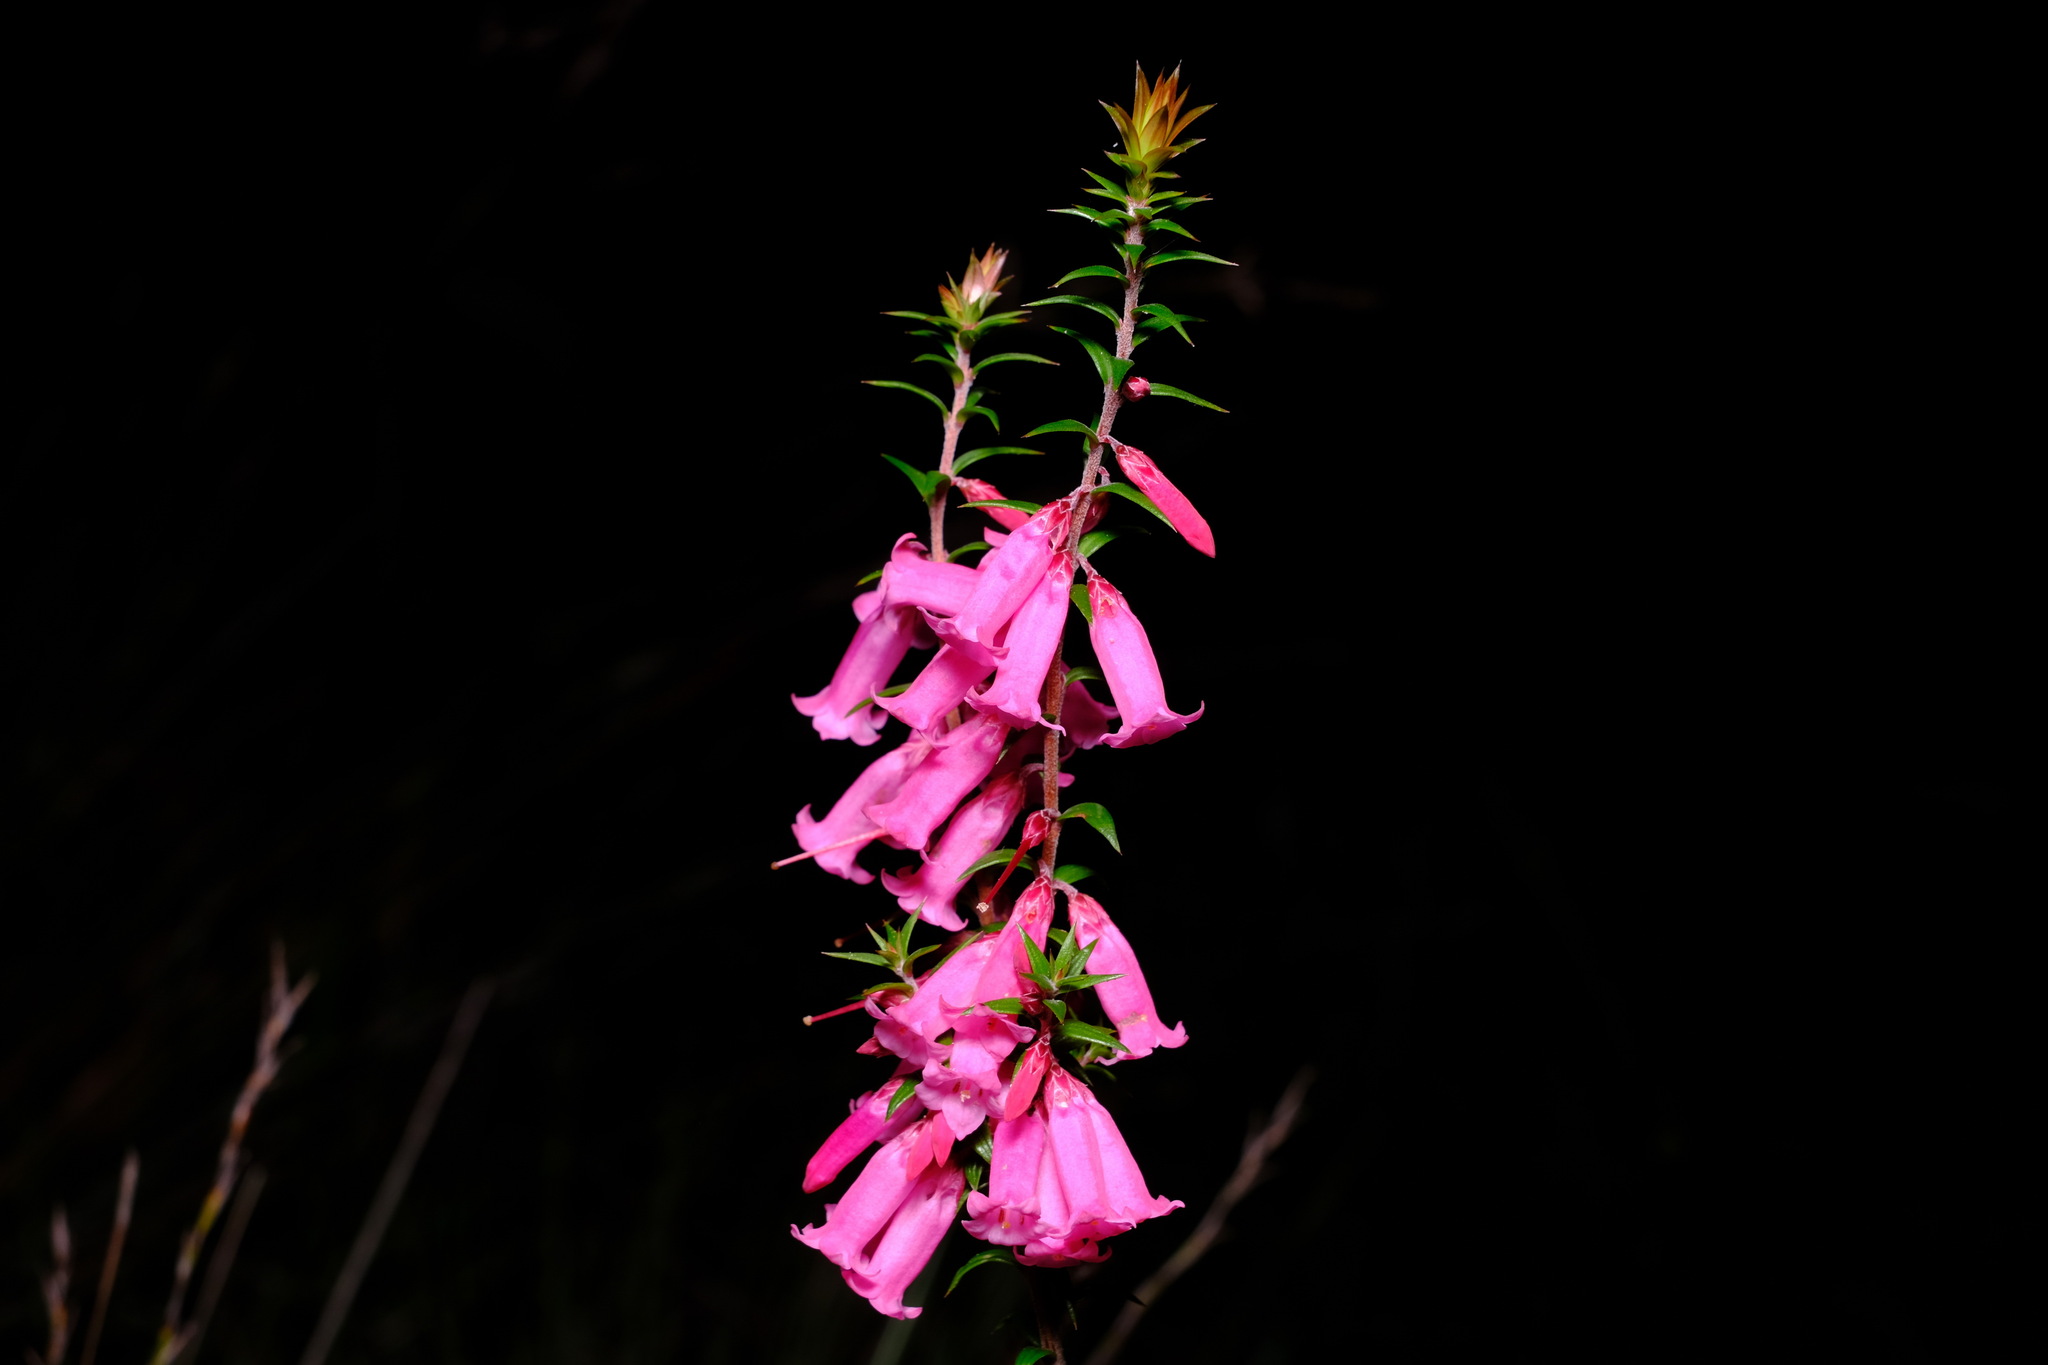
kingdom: Plantae
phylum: Tracheophyta
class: Magnoliopsida
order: Ericales
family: Ericaceae
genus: Epacris
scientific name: Epacris impressa
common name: Common-heath
